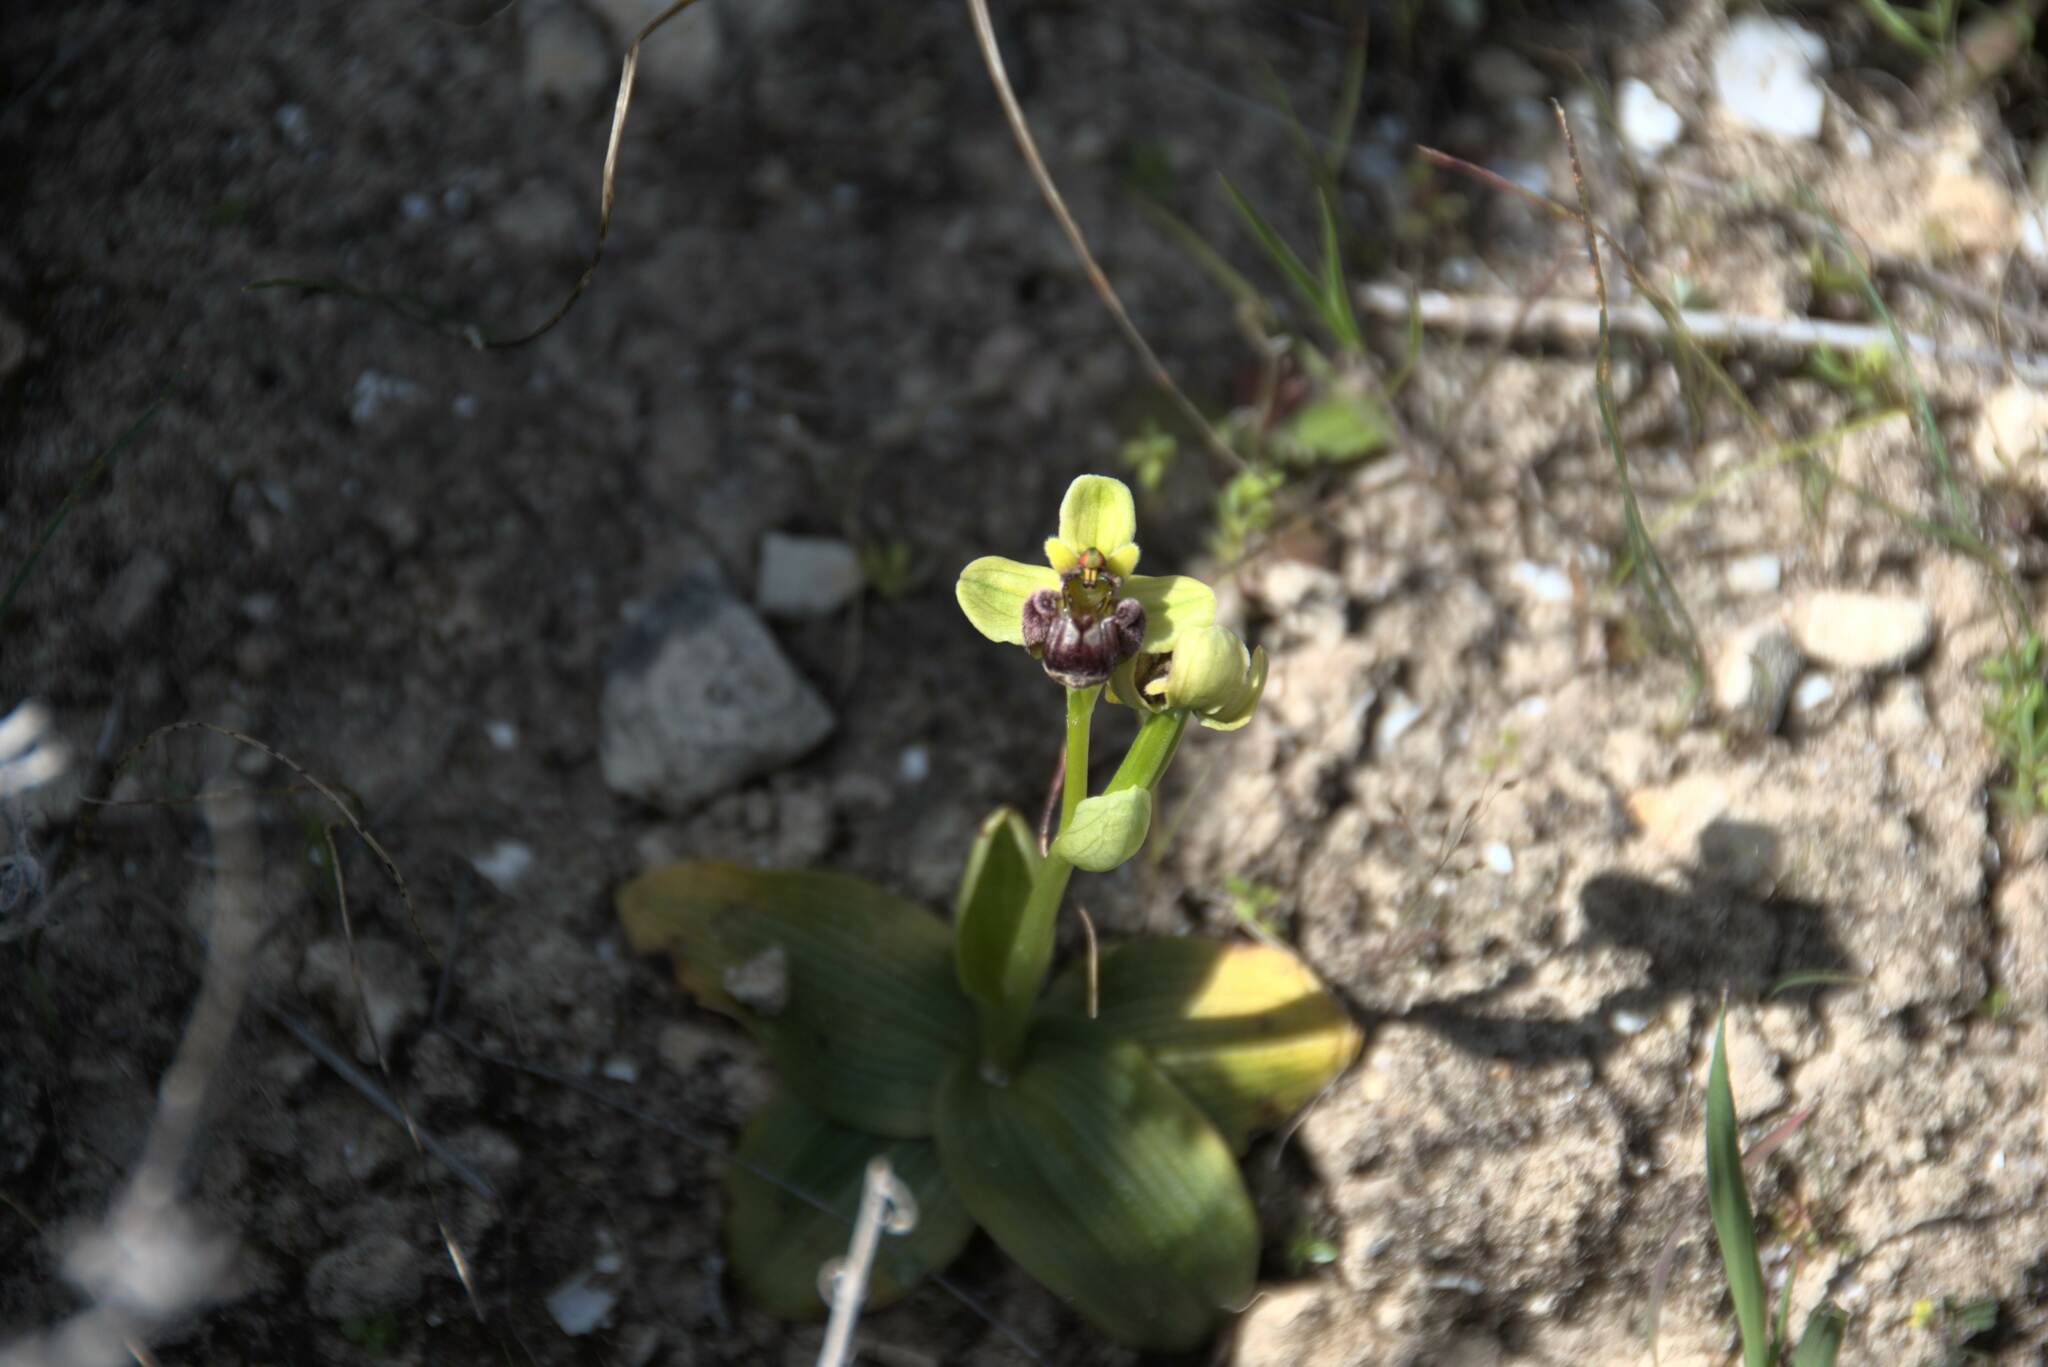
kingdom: Plantae
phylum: Tracheophyta
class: Liliopsida
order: Asparagales
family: Orchidaceae
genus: Ophrys
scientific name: Ophrys bombyliflora
